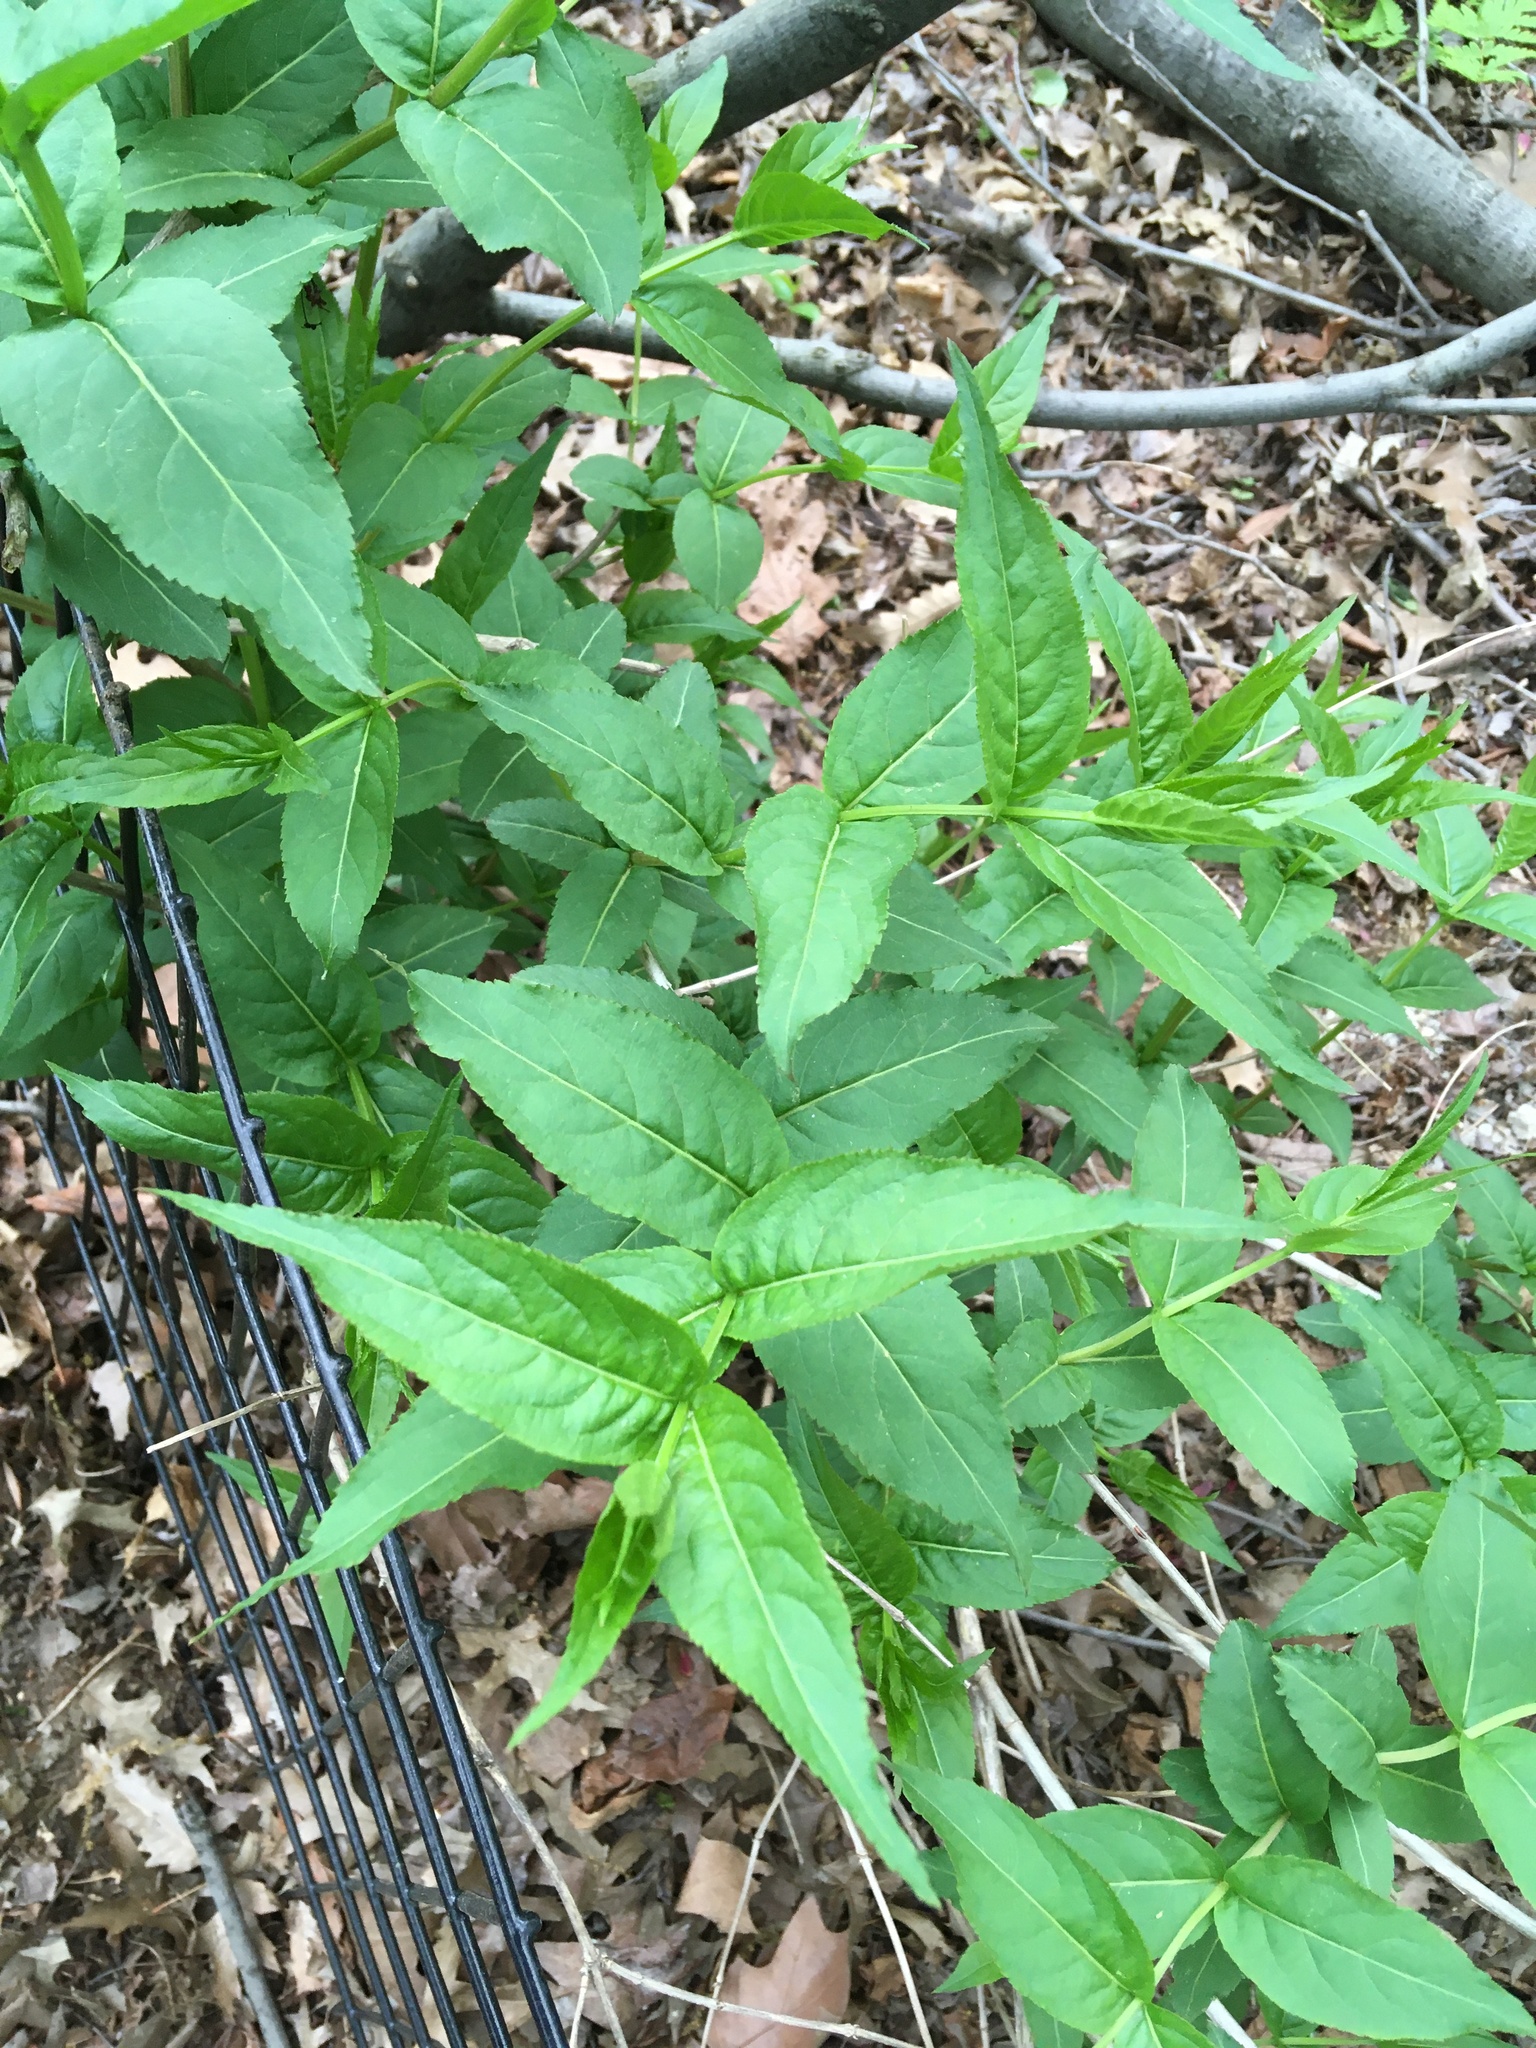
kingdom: Plantae
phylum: Tracheophyta
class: Magnoliopsida
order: Dipsacales
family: Caprifoliaceae
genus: Diervilla
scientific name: Diervilla lonicera
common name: Bush-honeysuckle
